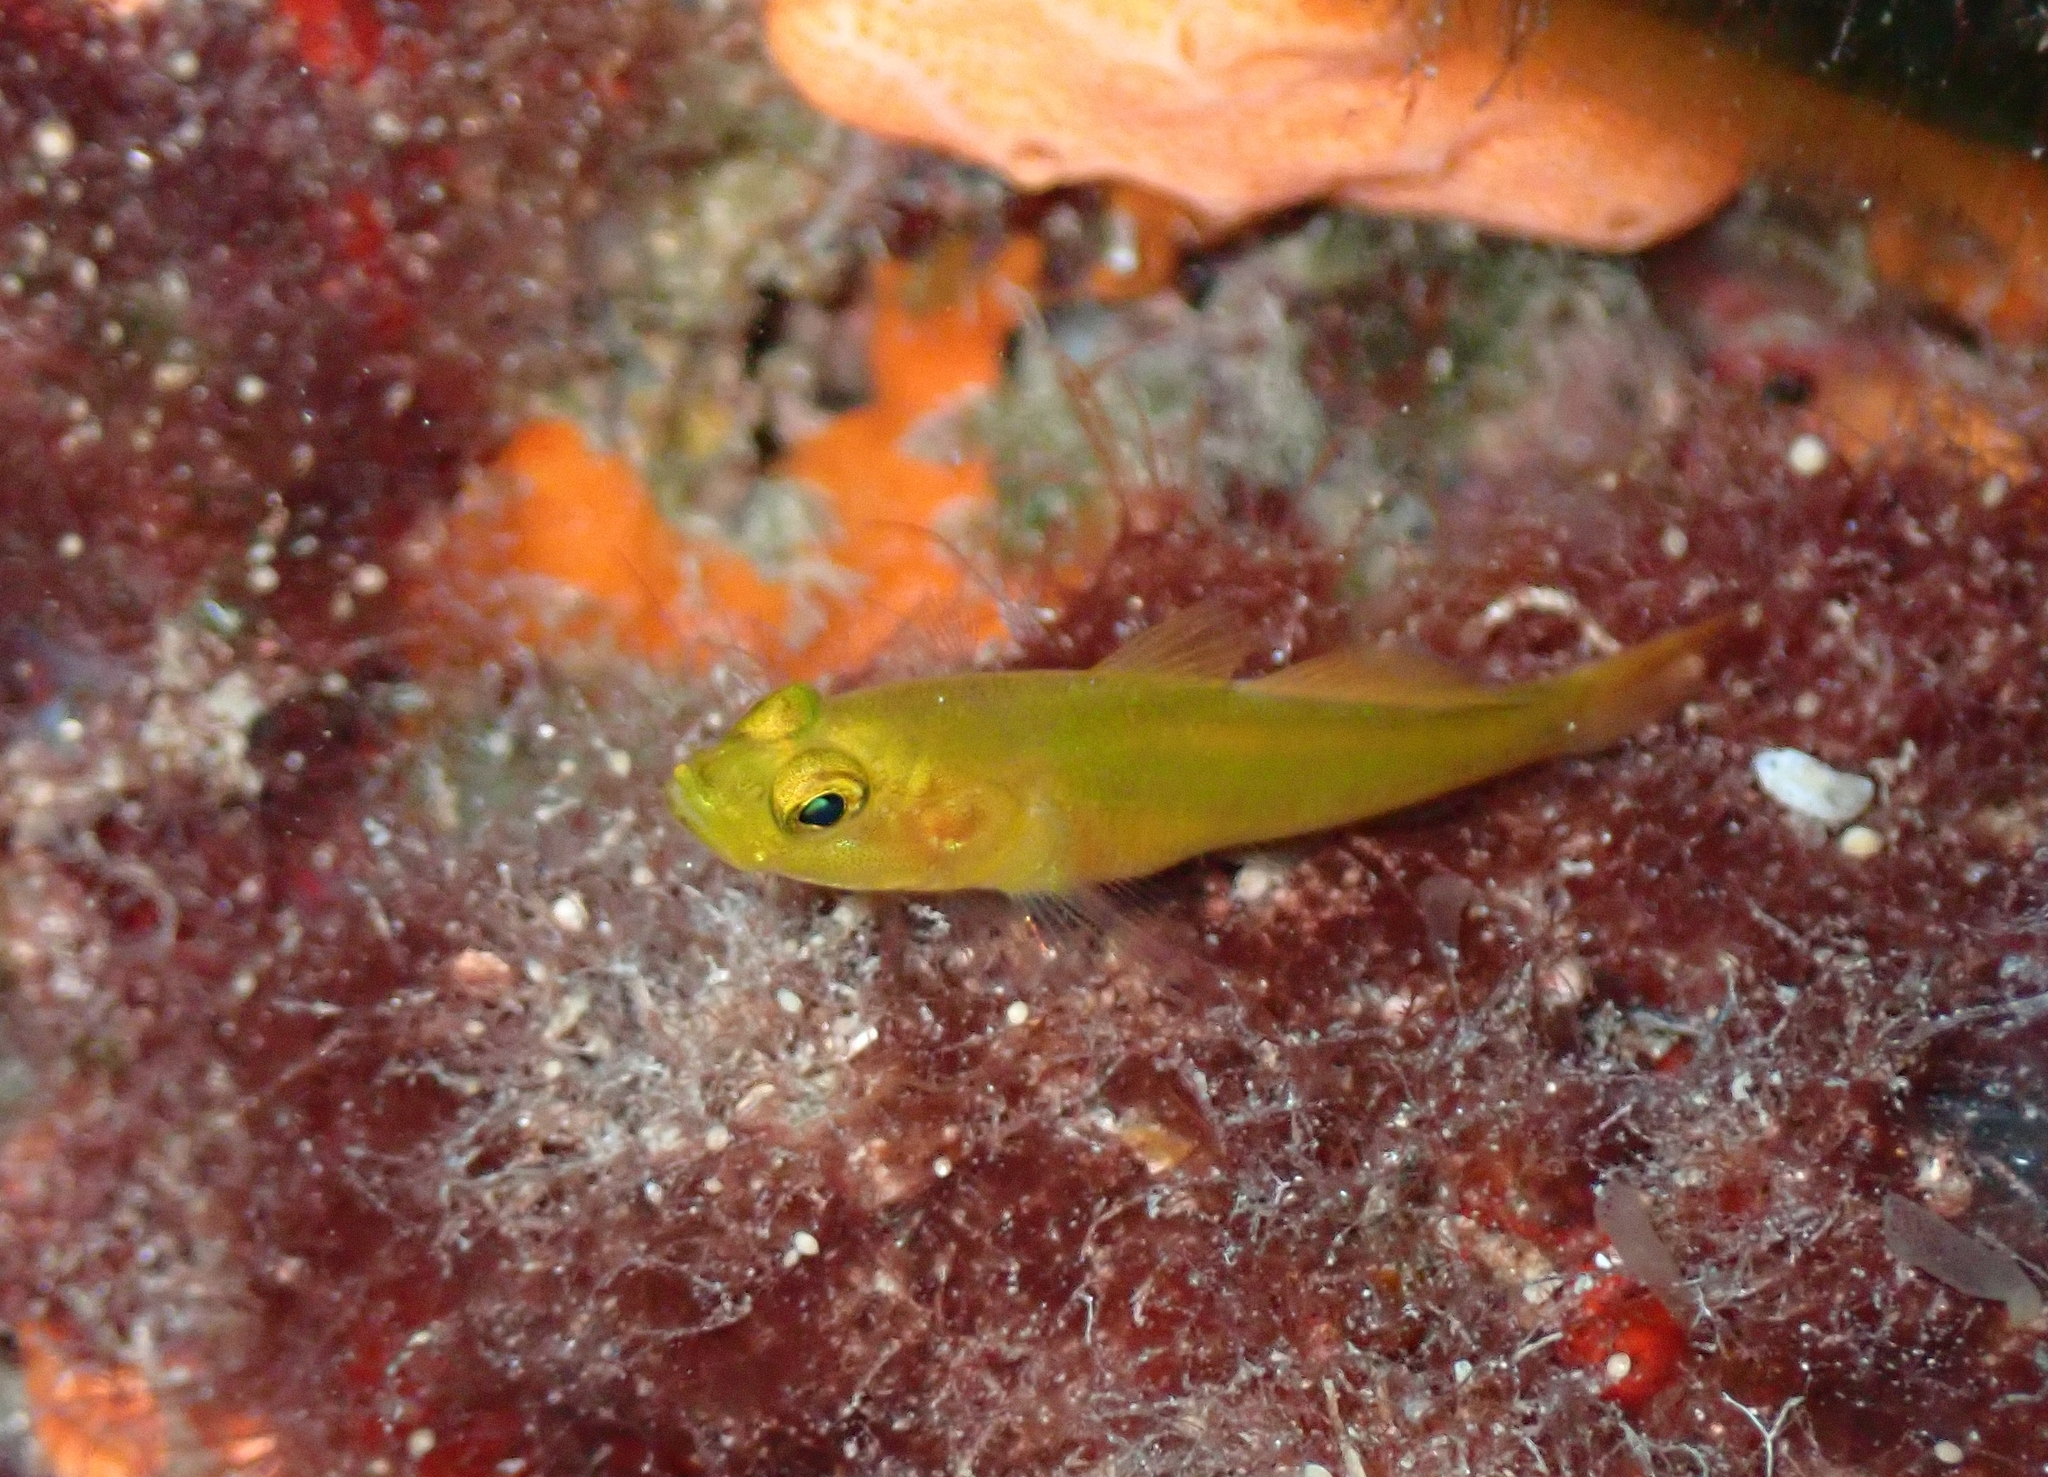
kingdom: Animalia
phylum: Chordata
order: Perciformes
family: Gobiidae
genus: Gobius
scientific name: Gobius auratus
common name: Golden goby
